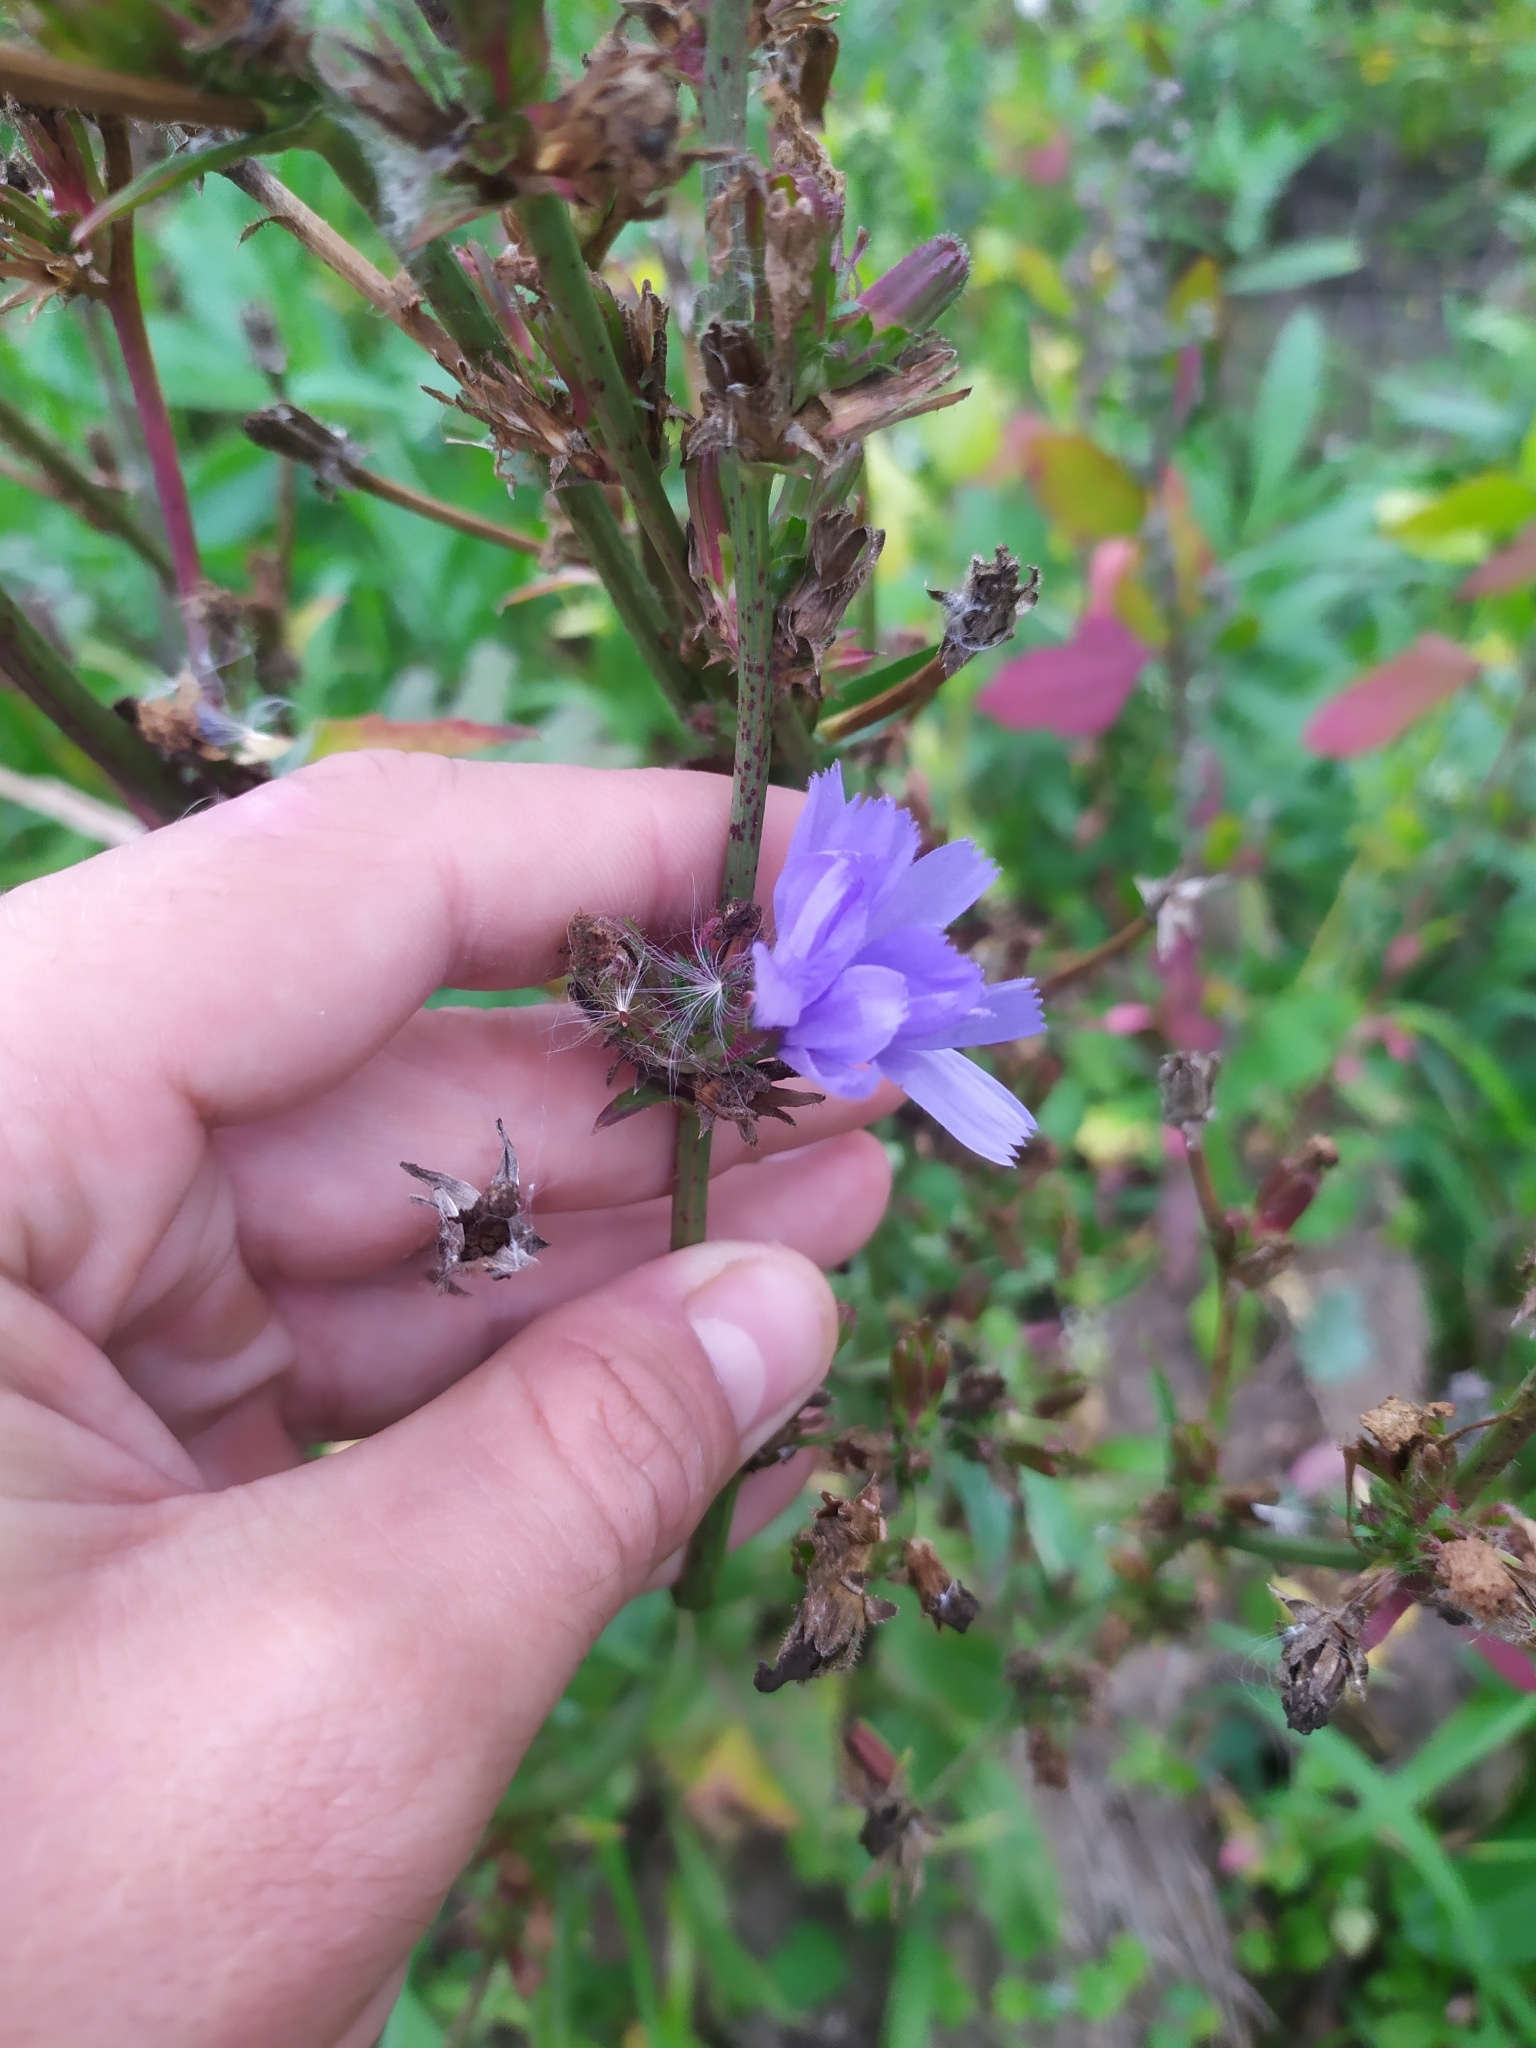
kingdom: Plantae
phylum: Tracheophyta
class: Magnoliopsida
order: Asterales
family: Asteraceae
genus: Cichorium
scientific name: Cichorium intybus
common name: Chicory
